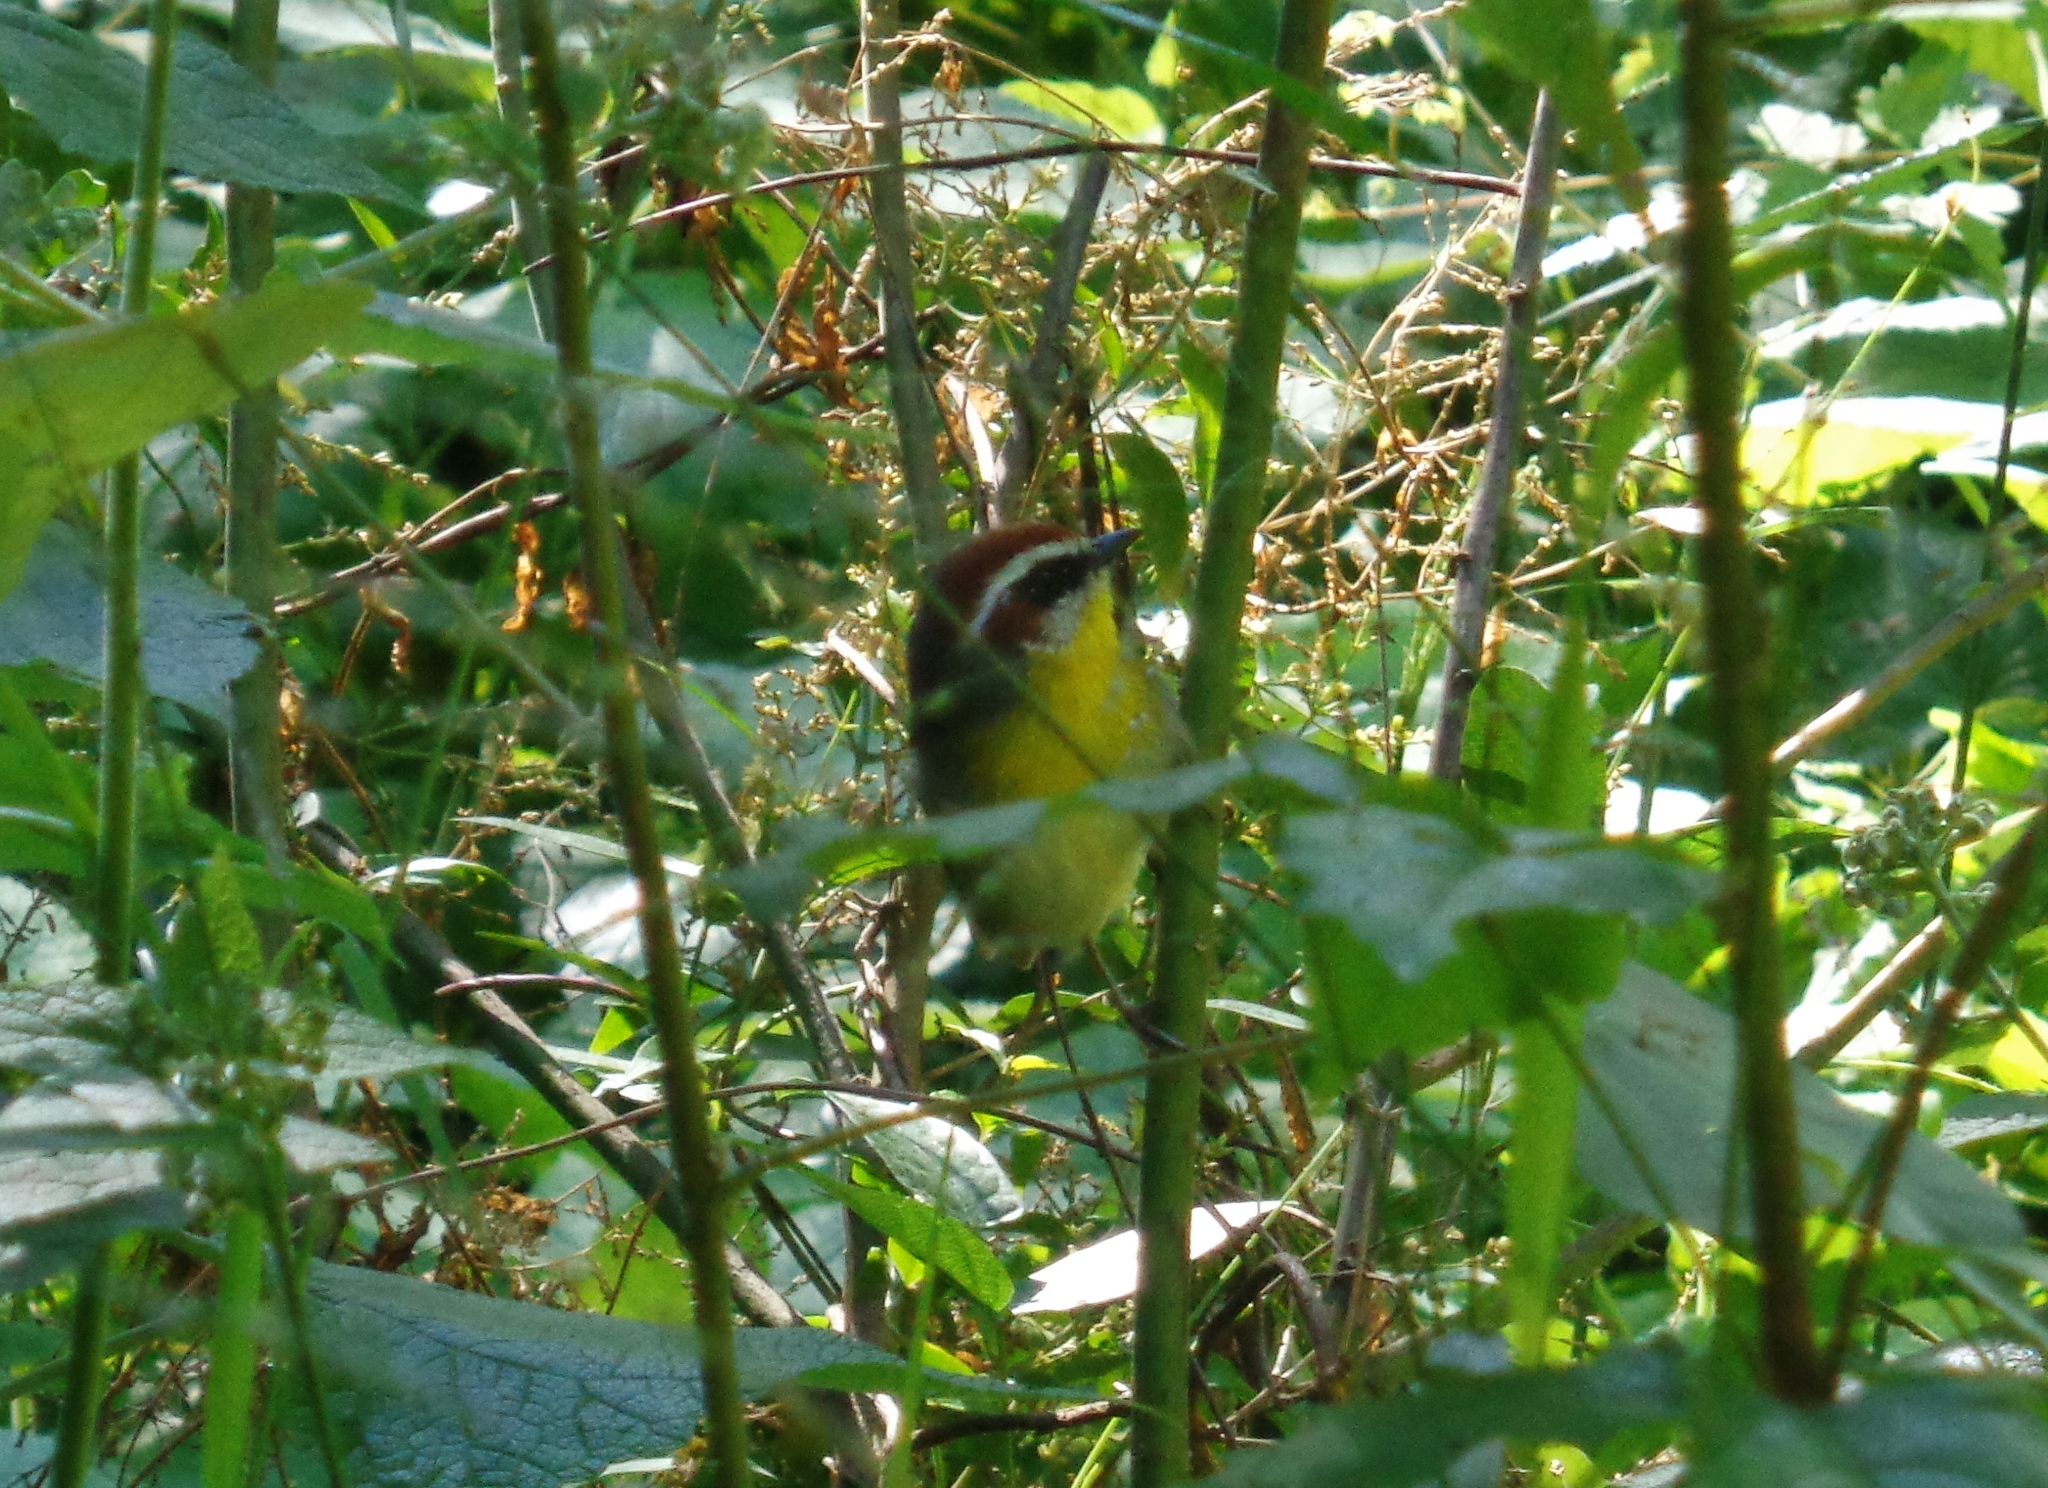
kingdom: Animalia
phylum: Chordata
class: Aves
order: Passeriformes
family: Parulidae
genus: Basileuterus
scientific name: Basileuterus rufifrons
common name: Rufous-capped warbler
